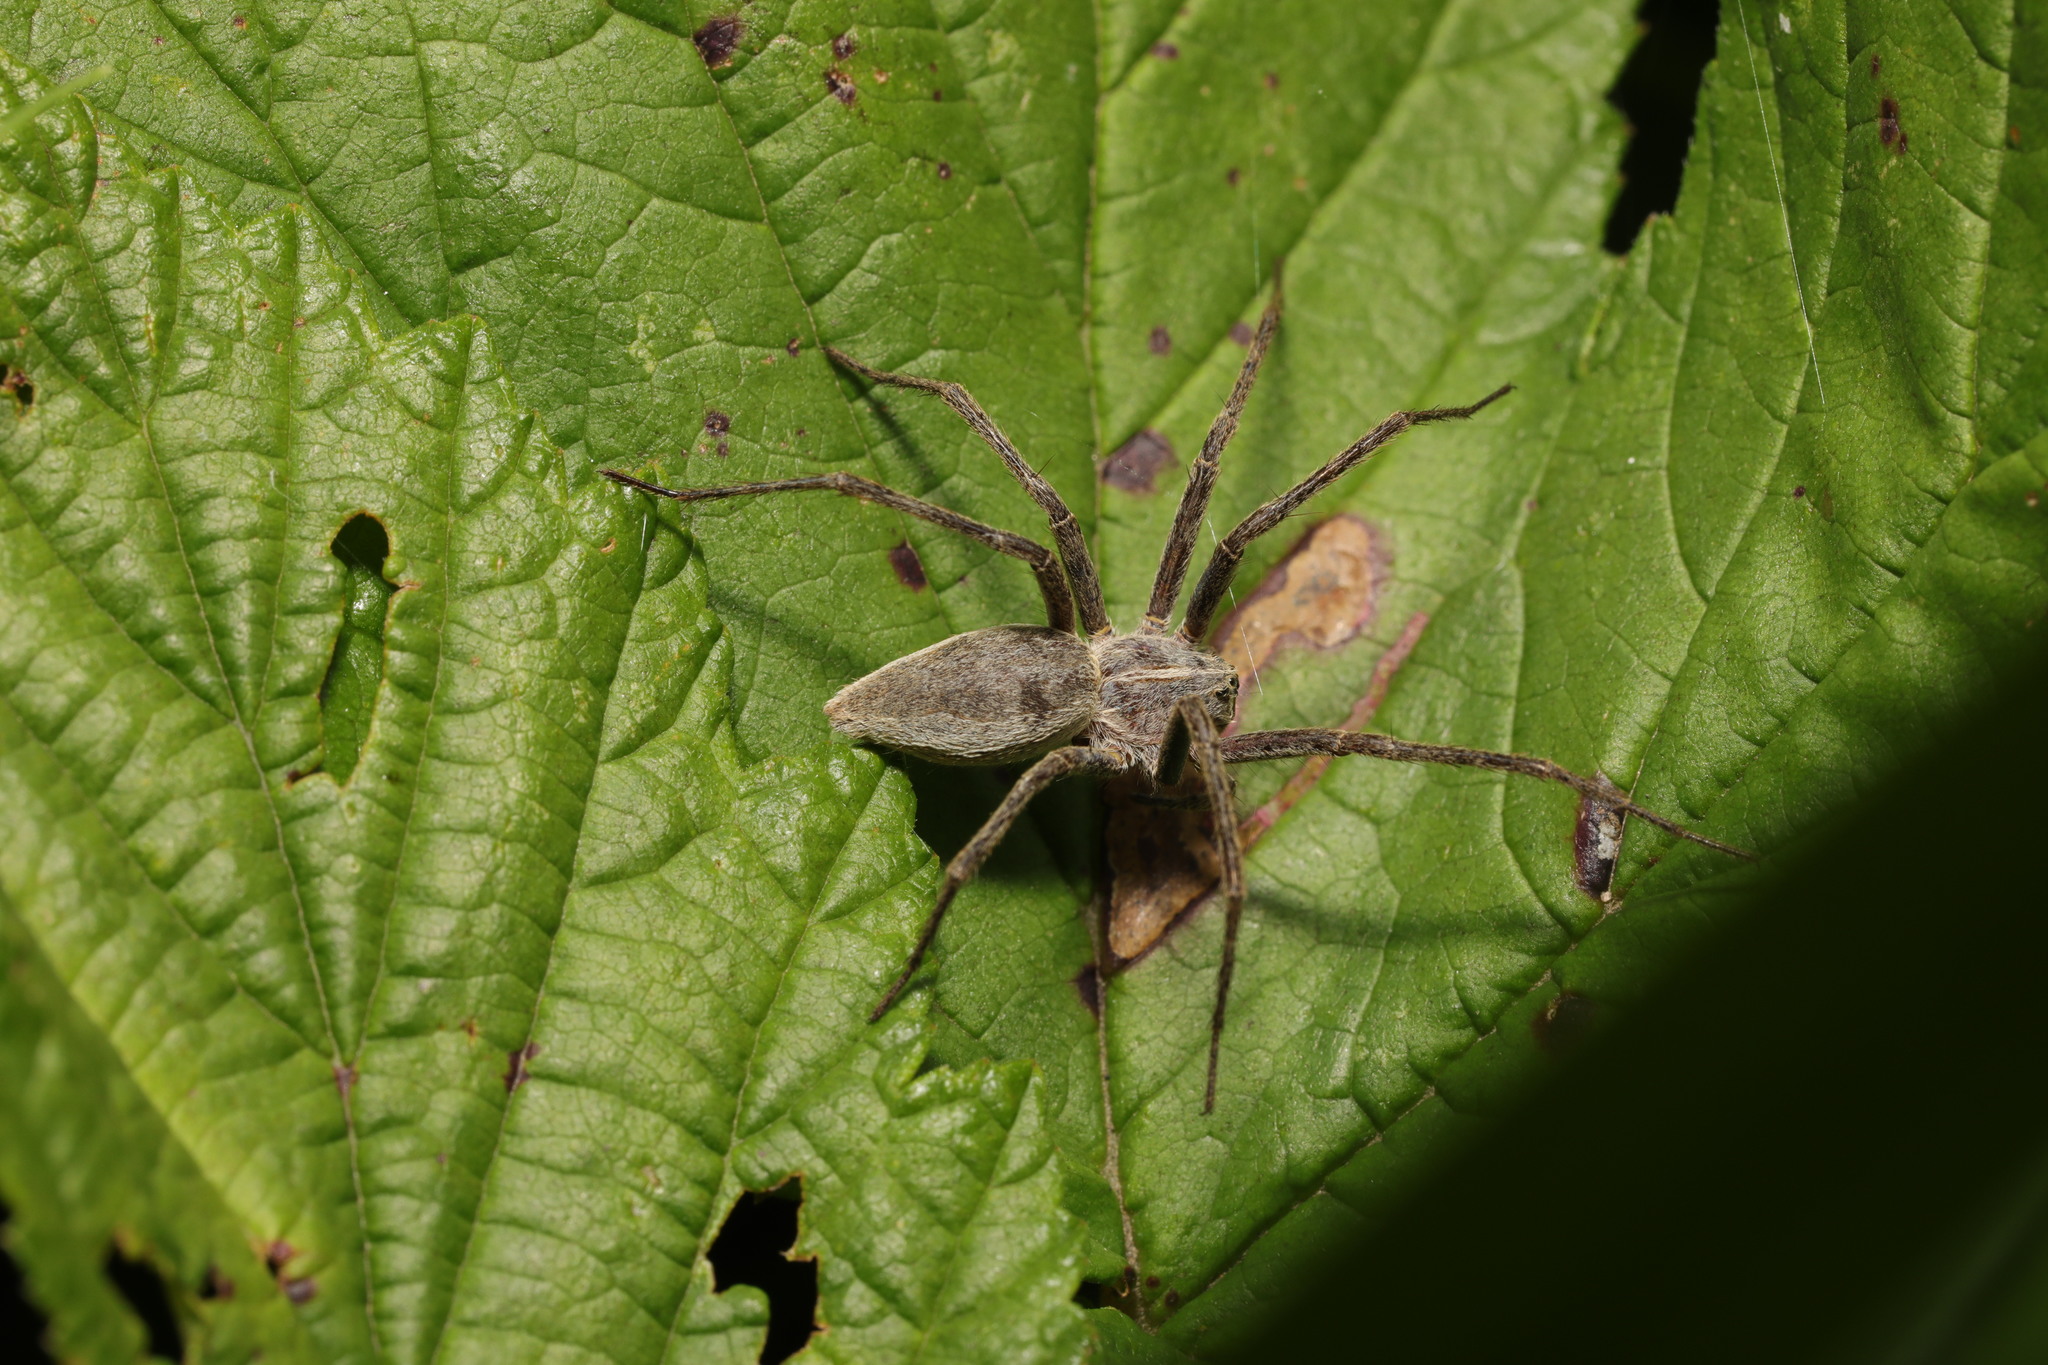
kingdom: Animalia
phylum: Arthropoda
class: Arachnida
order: Araneae
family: Pisauridae
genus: Pisaura
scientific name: Pisaura mirabilis
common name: Tent spider
